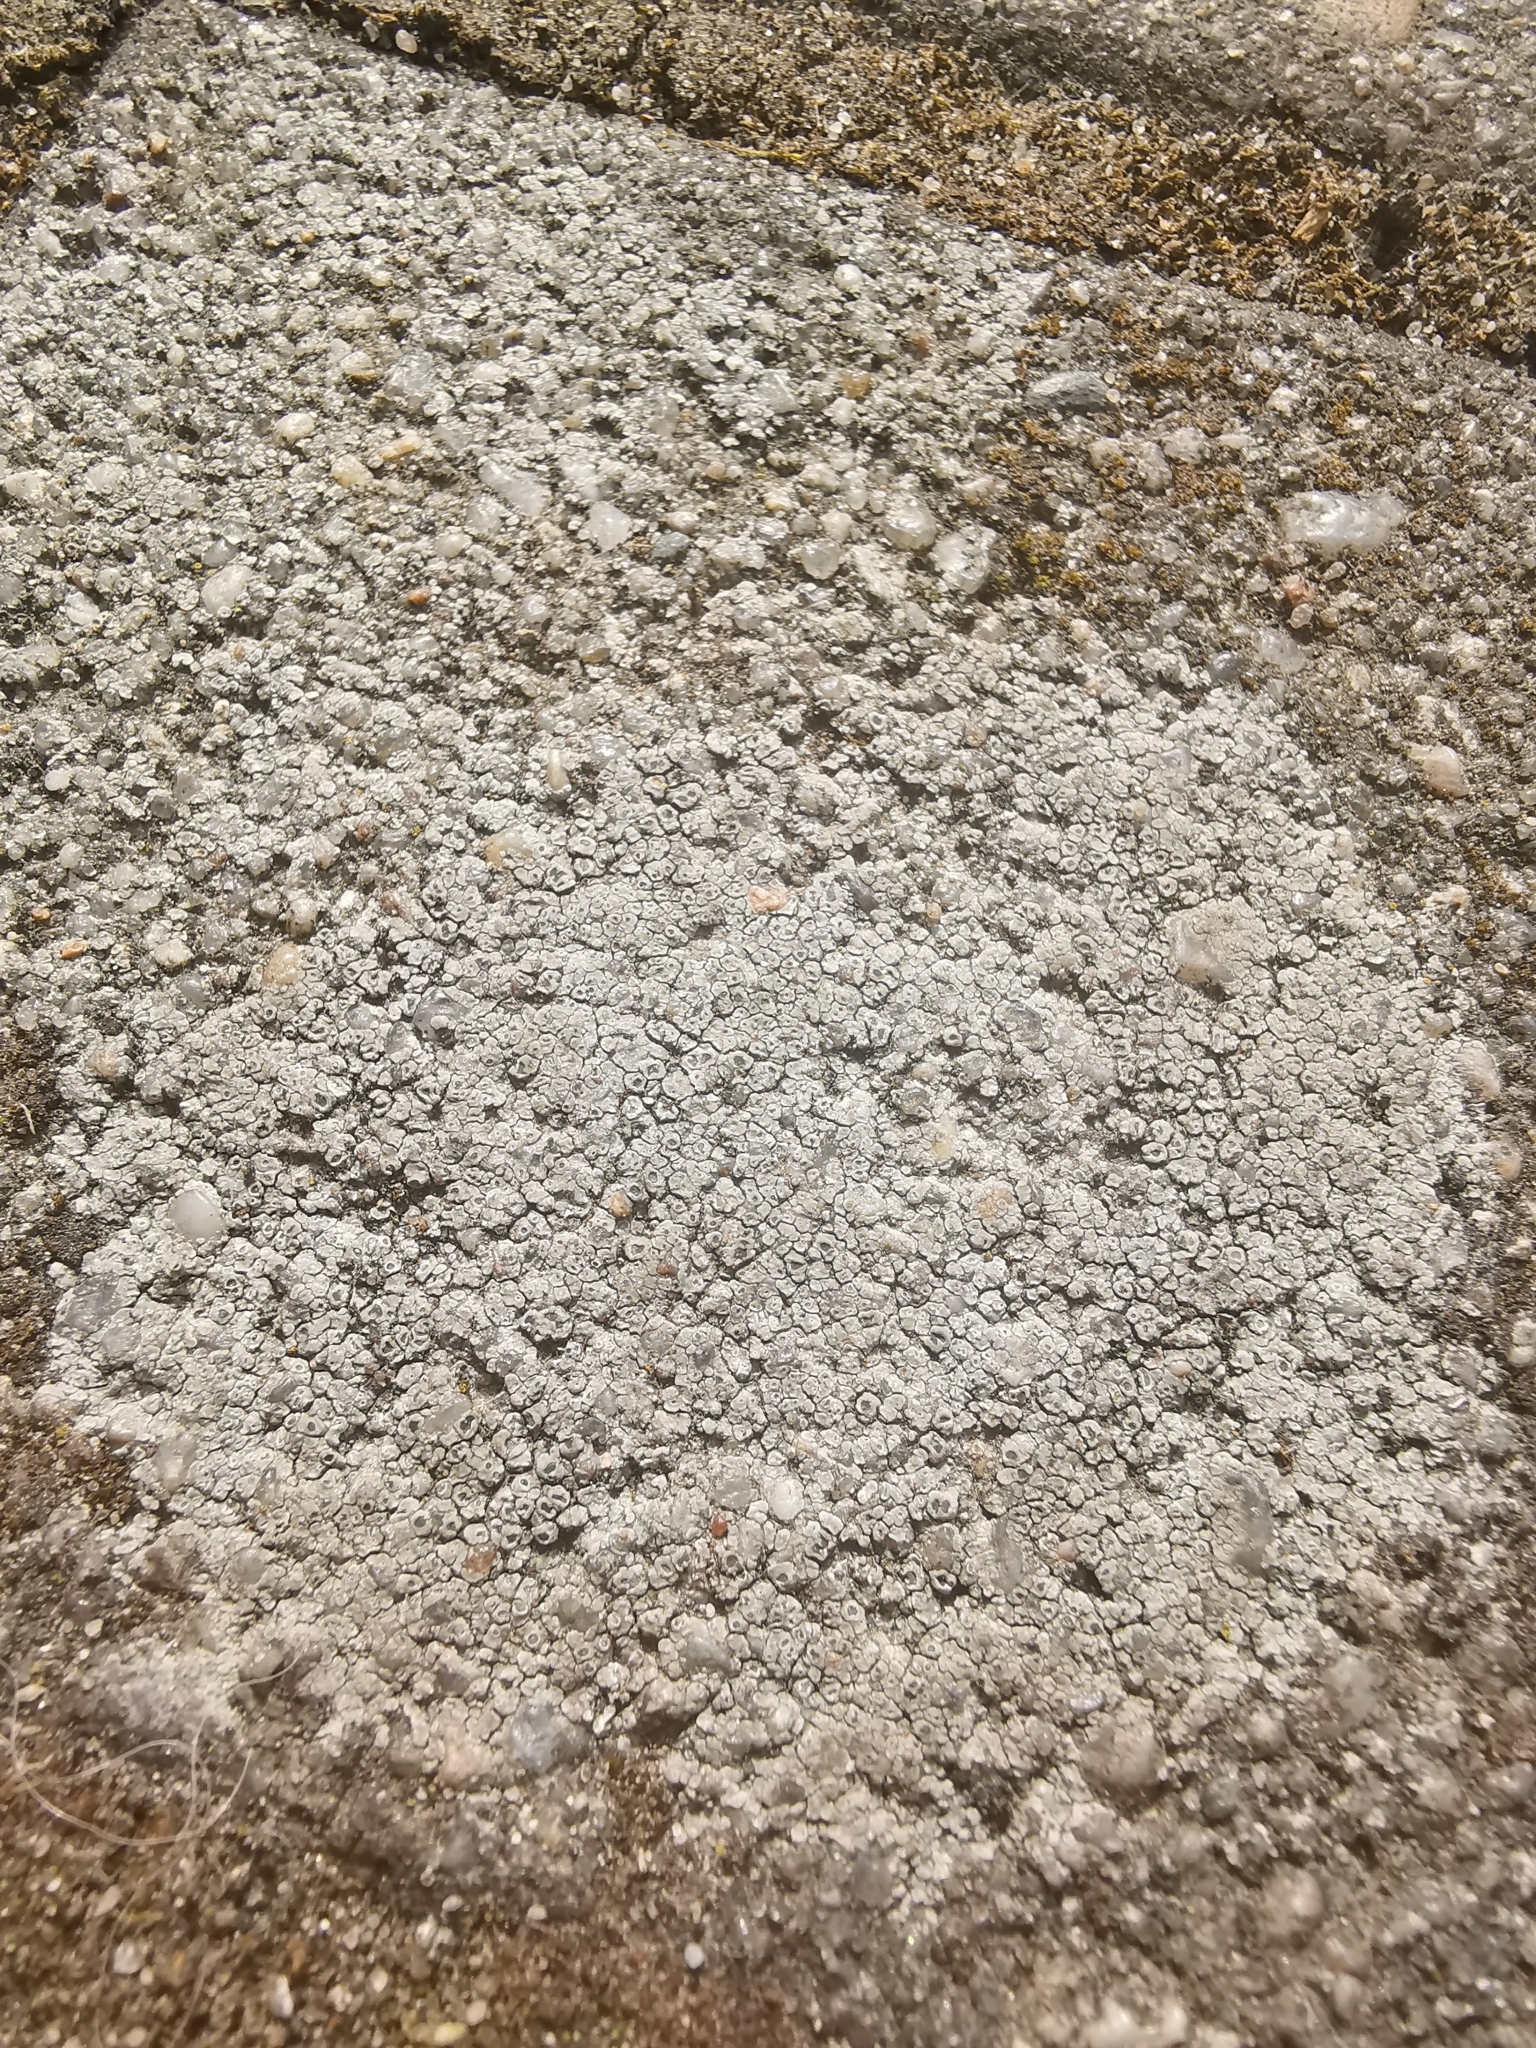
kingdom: Fungi
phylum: Ascomycota
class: Lecanoromycetes
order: Pertusariales
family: Megasporaceae
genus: Circinaria
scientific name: Circinaria contorta
